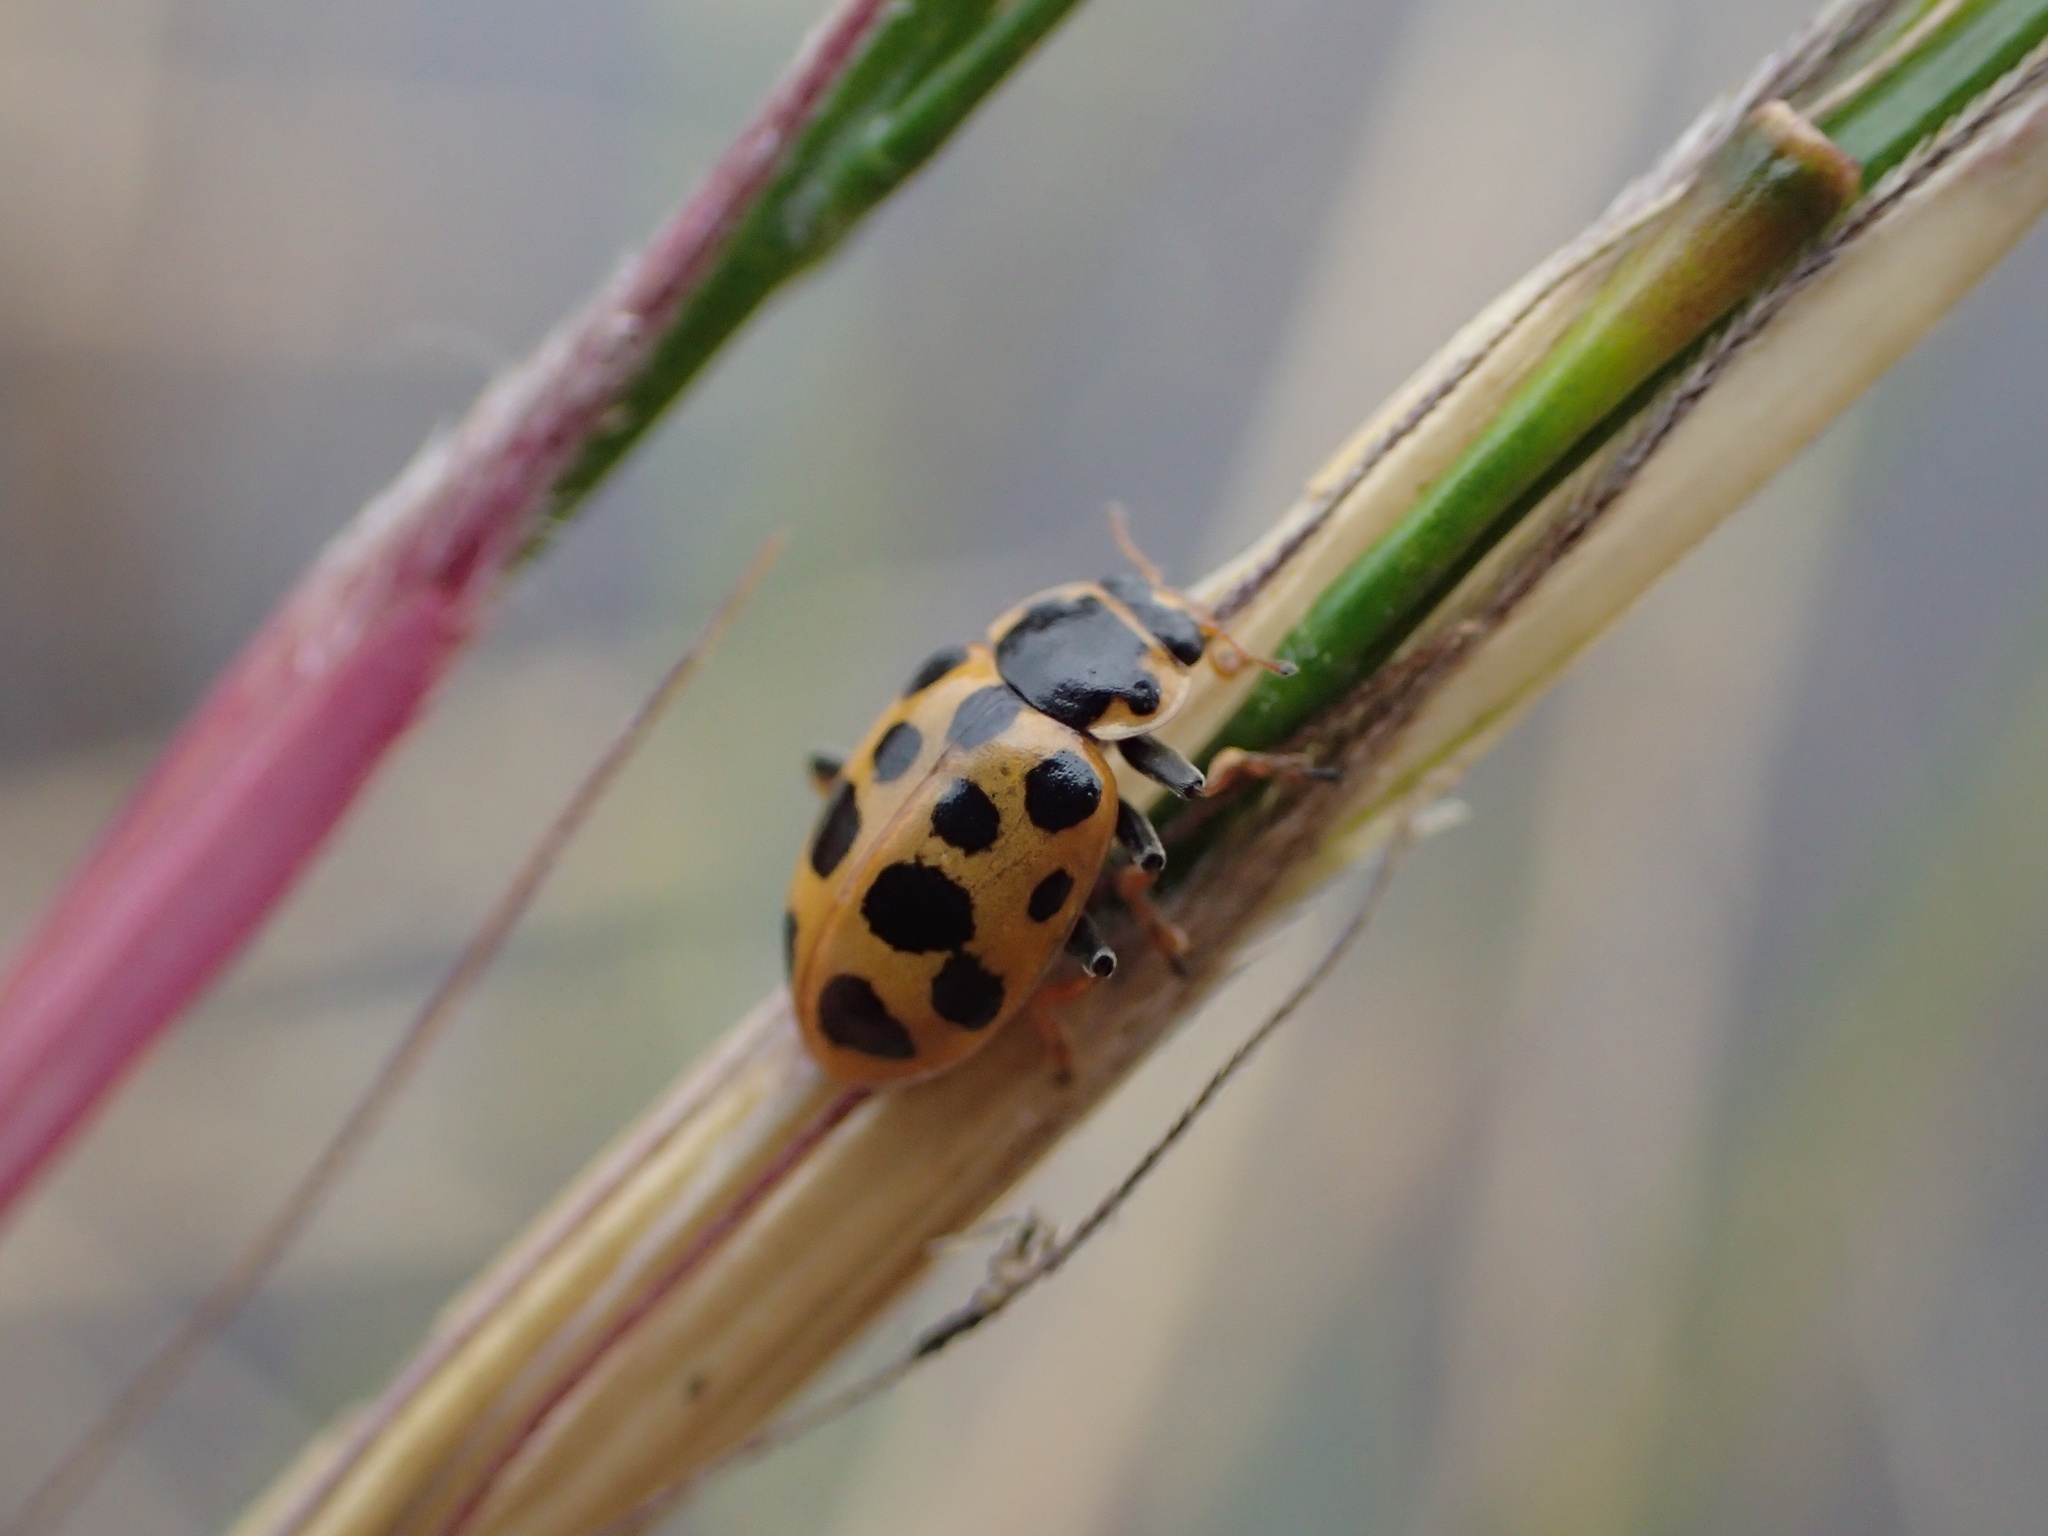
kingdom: Animalia
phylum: Arthropoda
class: Insecta
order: Coleoptera
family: Coccinellidae
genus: Hippodamia
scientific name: Hippodamia tredecimpunctata
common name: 13-spot ladybird
